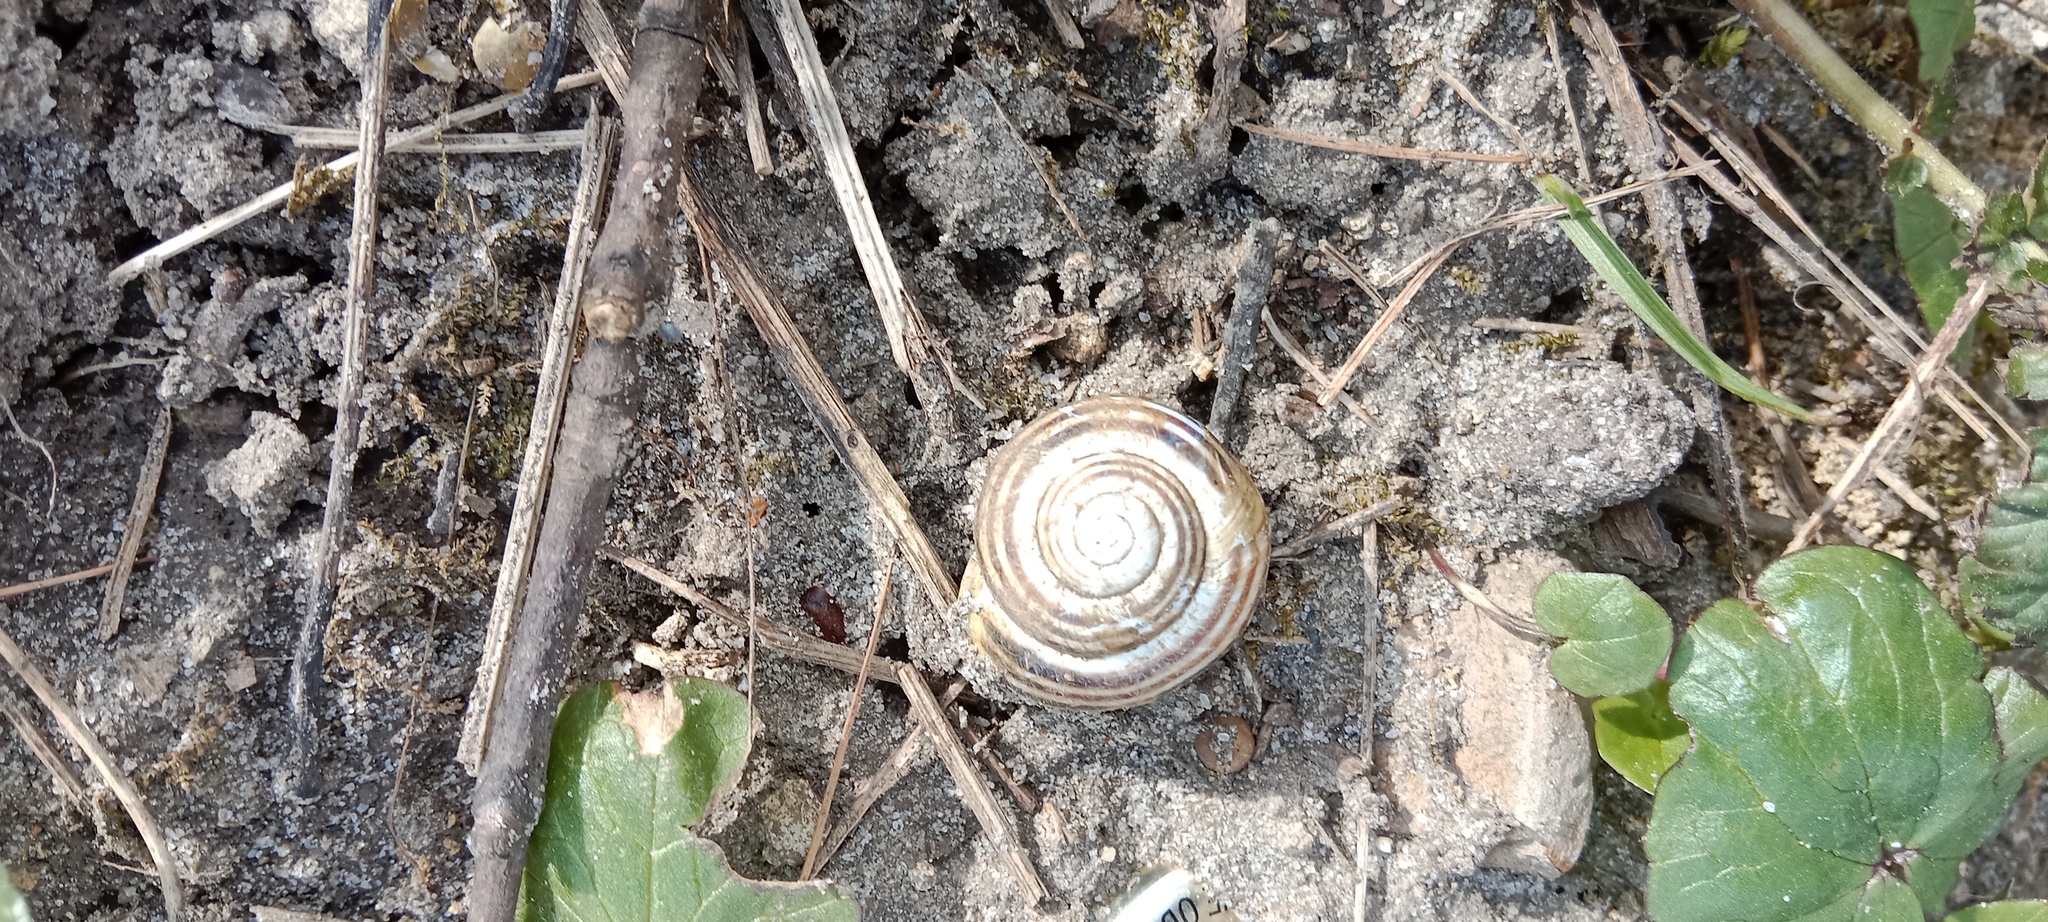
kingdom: Animalia
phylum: Mollusca
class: Gastropoda
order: Stylommatophora
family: Helicidae
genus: Cepaea
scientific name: Cepaea hortensis
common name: White-lip gardensnail
